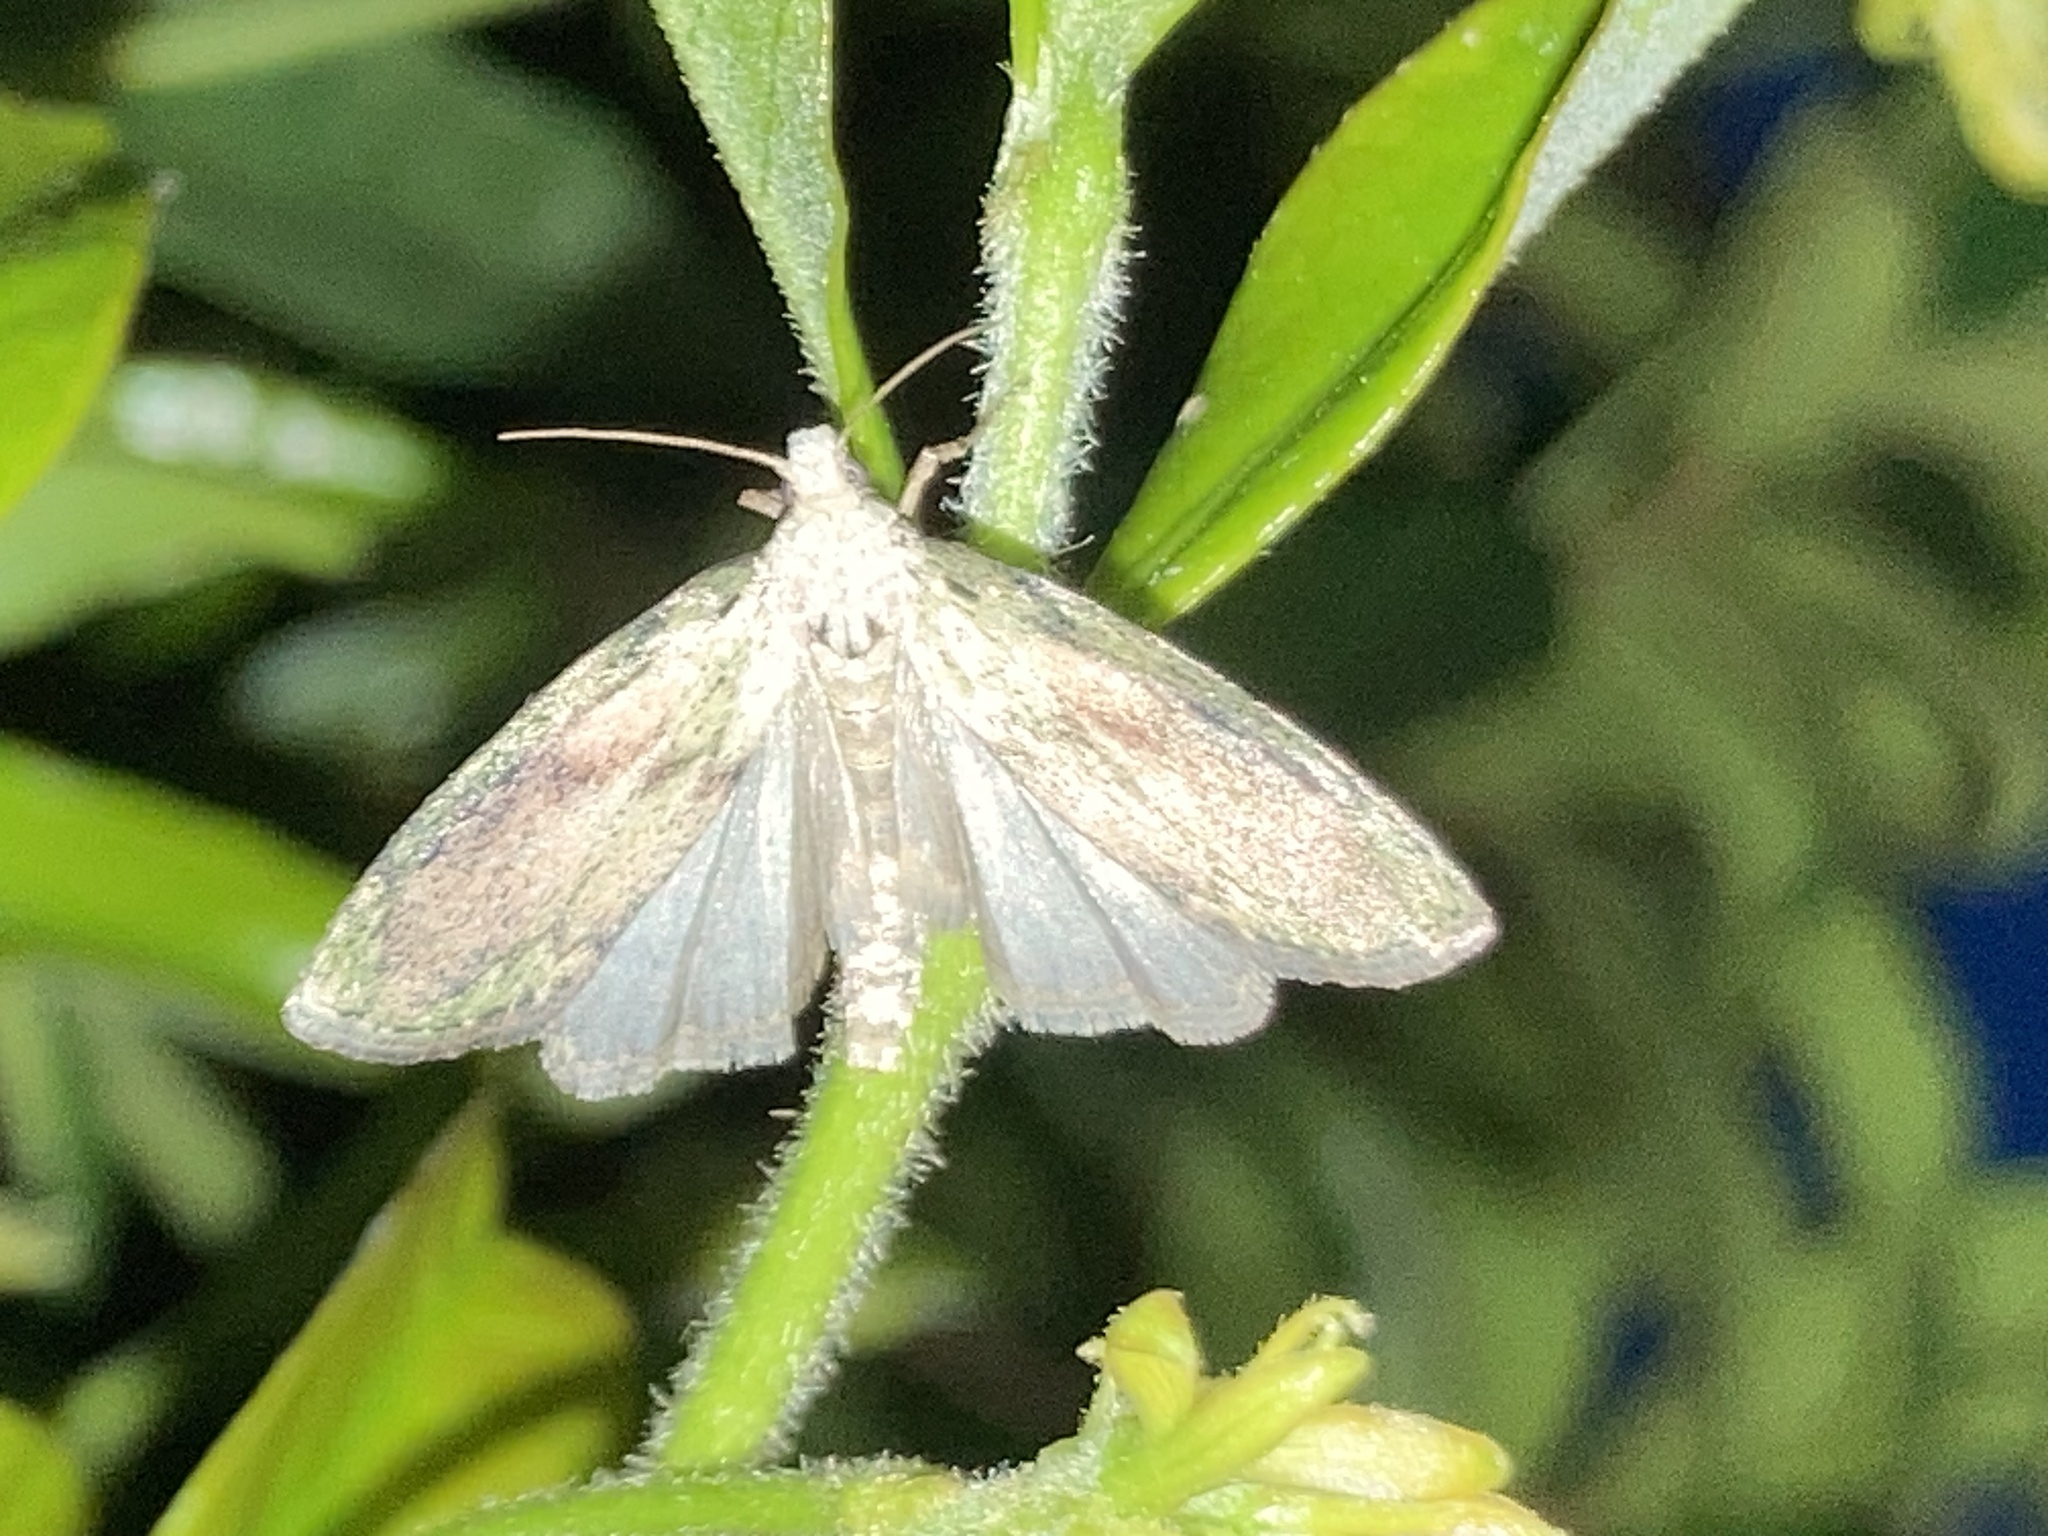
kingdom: Animalia
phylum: Arthropoda
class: Insecta
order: Lepidoptera
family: Pyralidae
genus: Aphomia
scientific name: Aphomia sociella
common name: Bee moth
